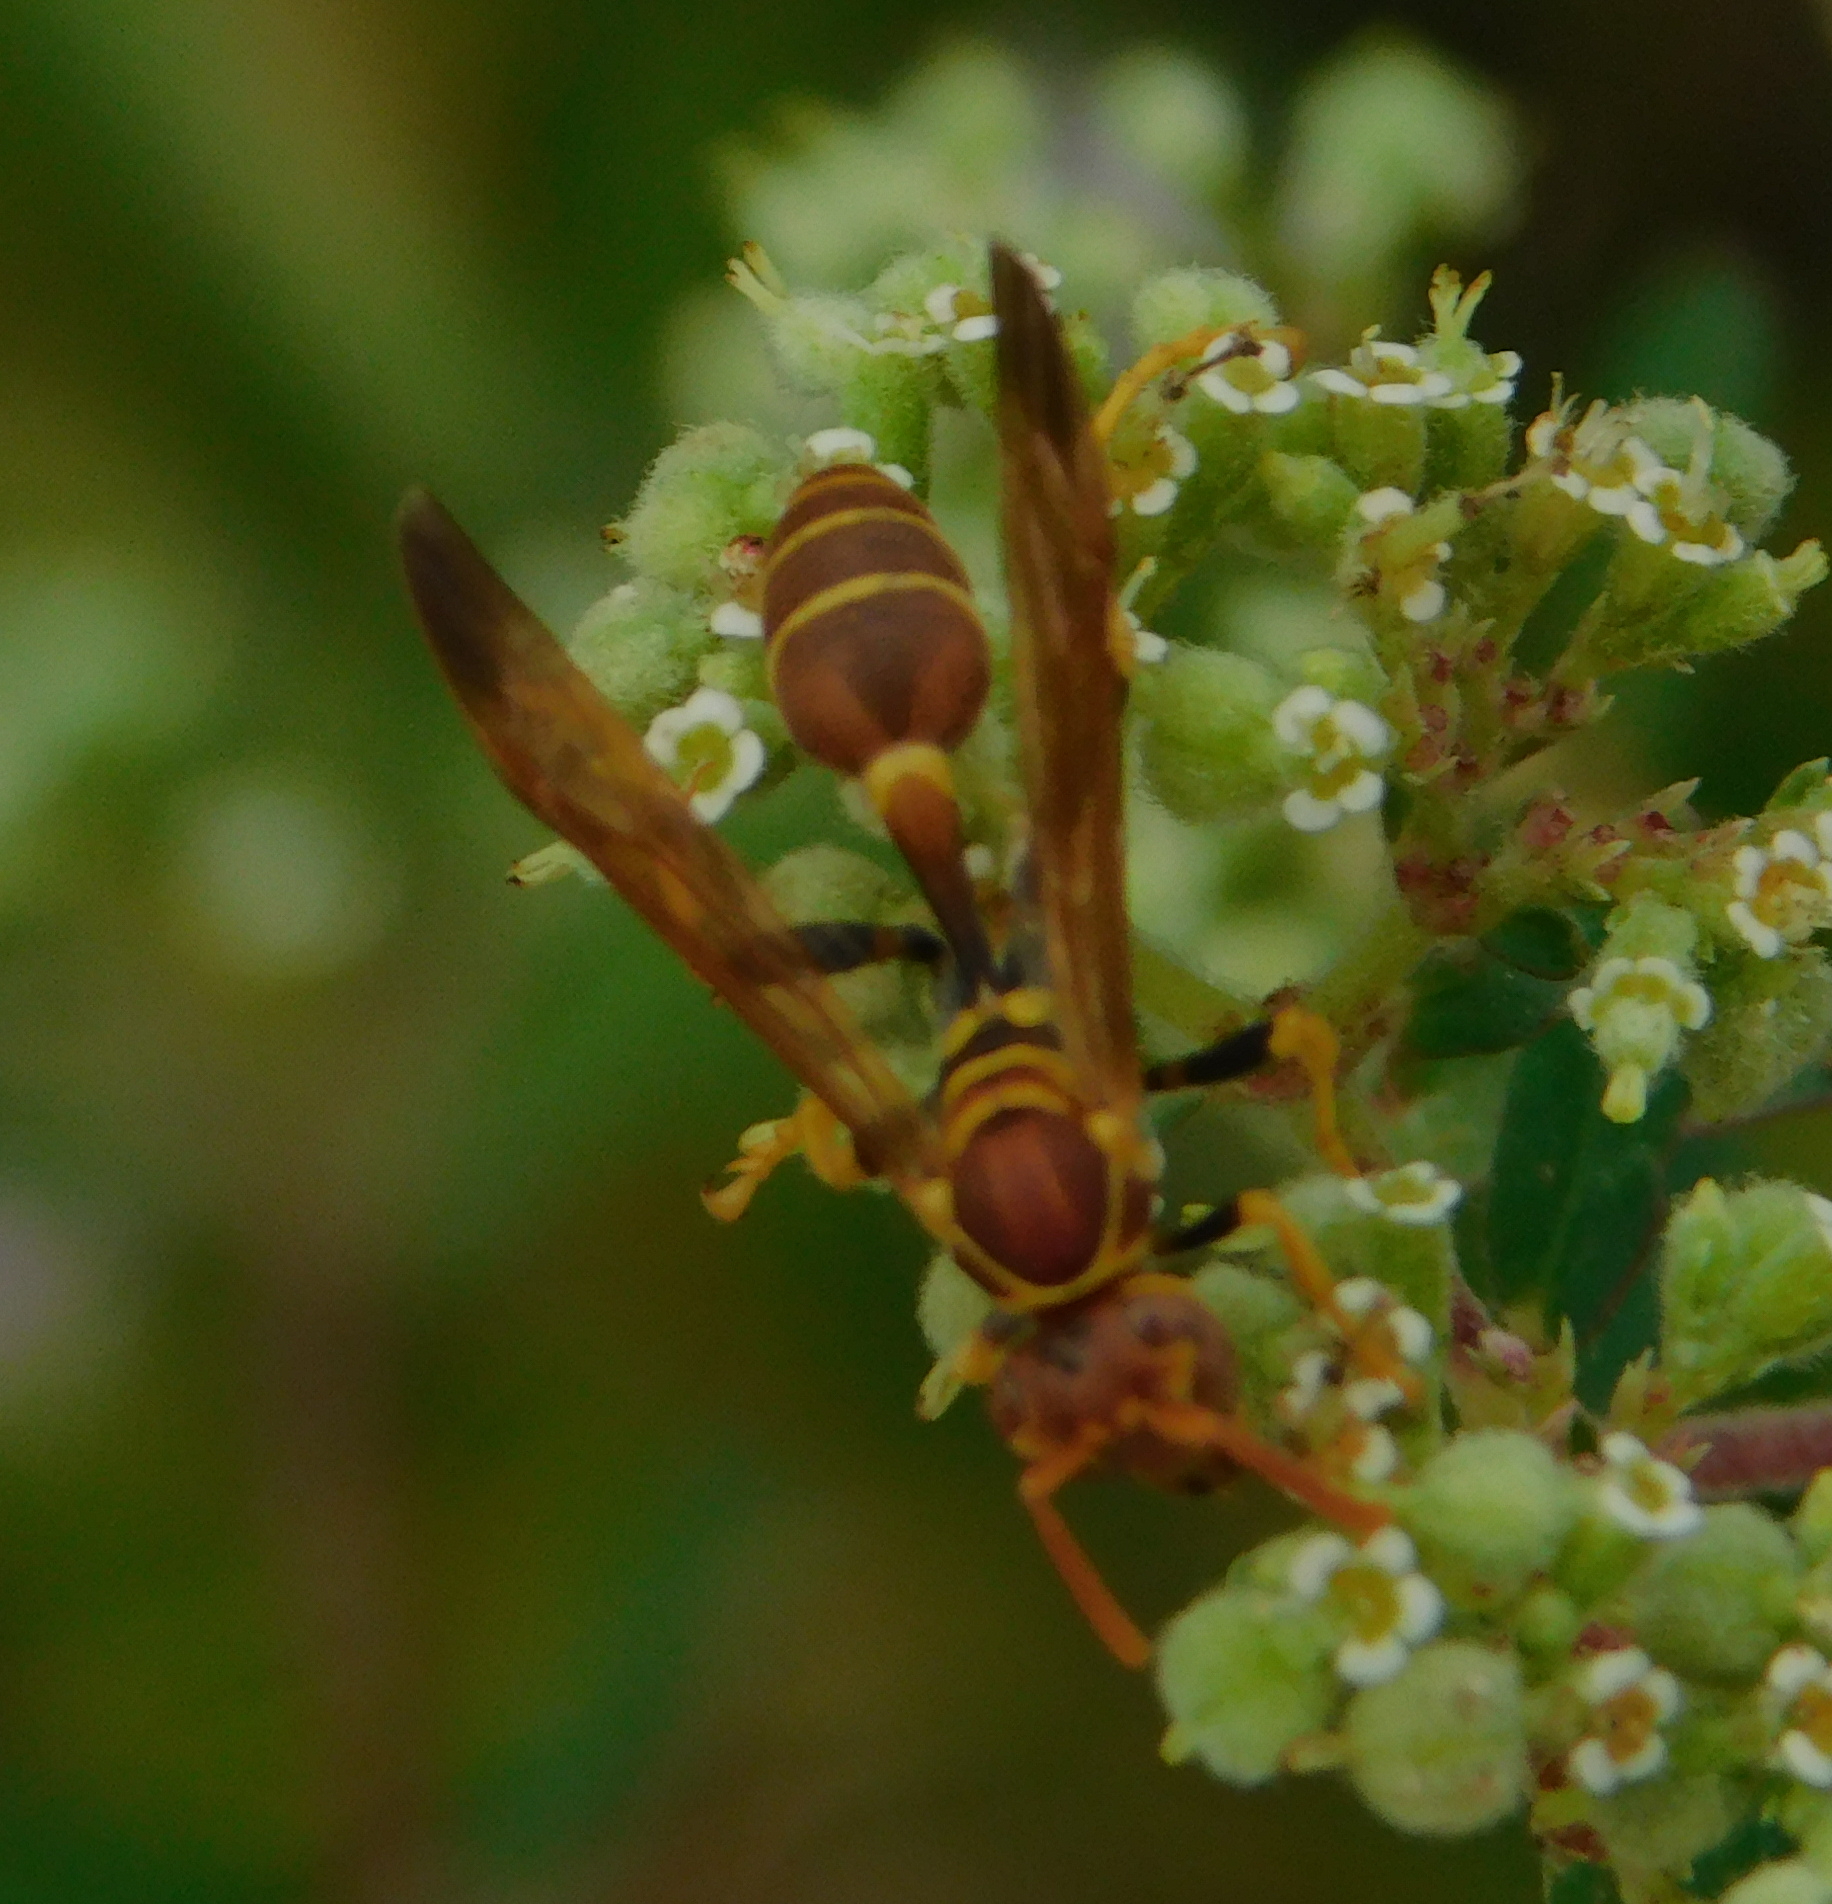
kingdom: Animalia
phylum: Arthropoda
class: Insecta
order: Hymenoptera
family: Vespidae
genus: Mischocyttarus
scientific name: Mischocyttarus mexicanus
